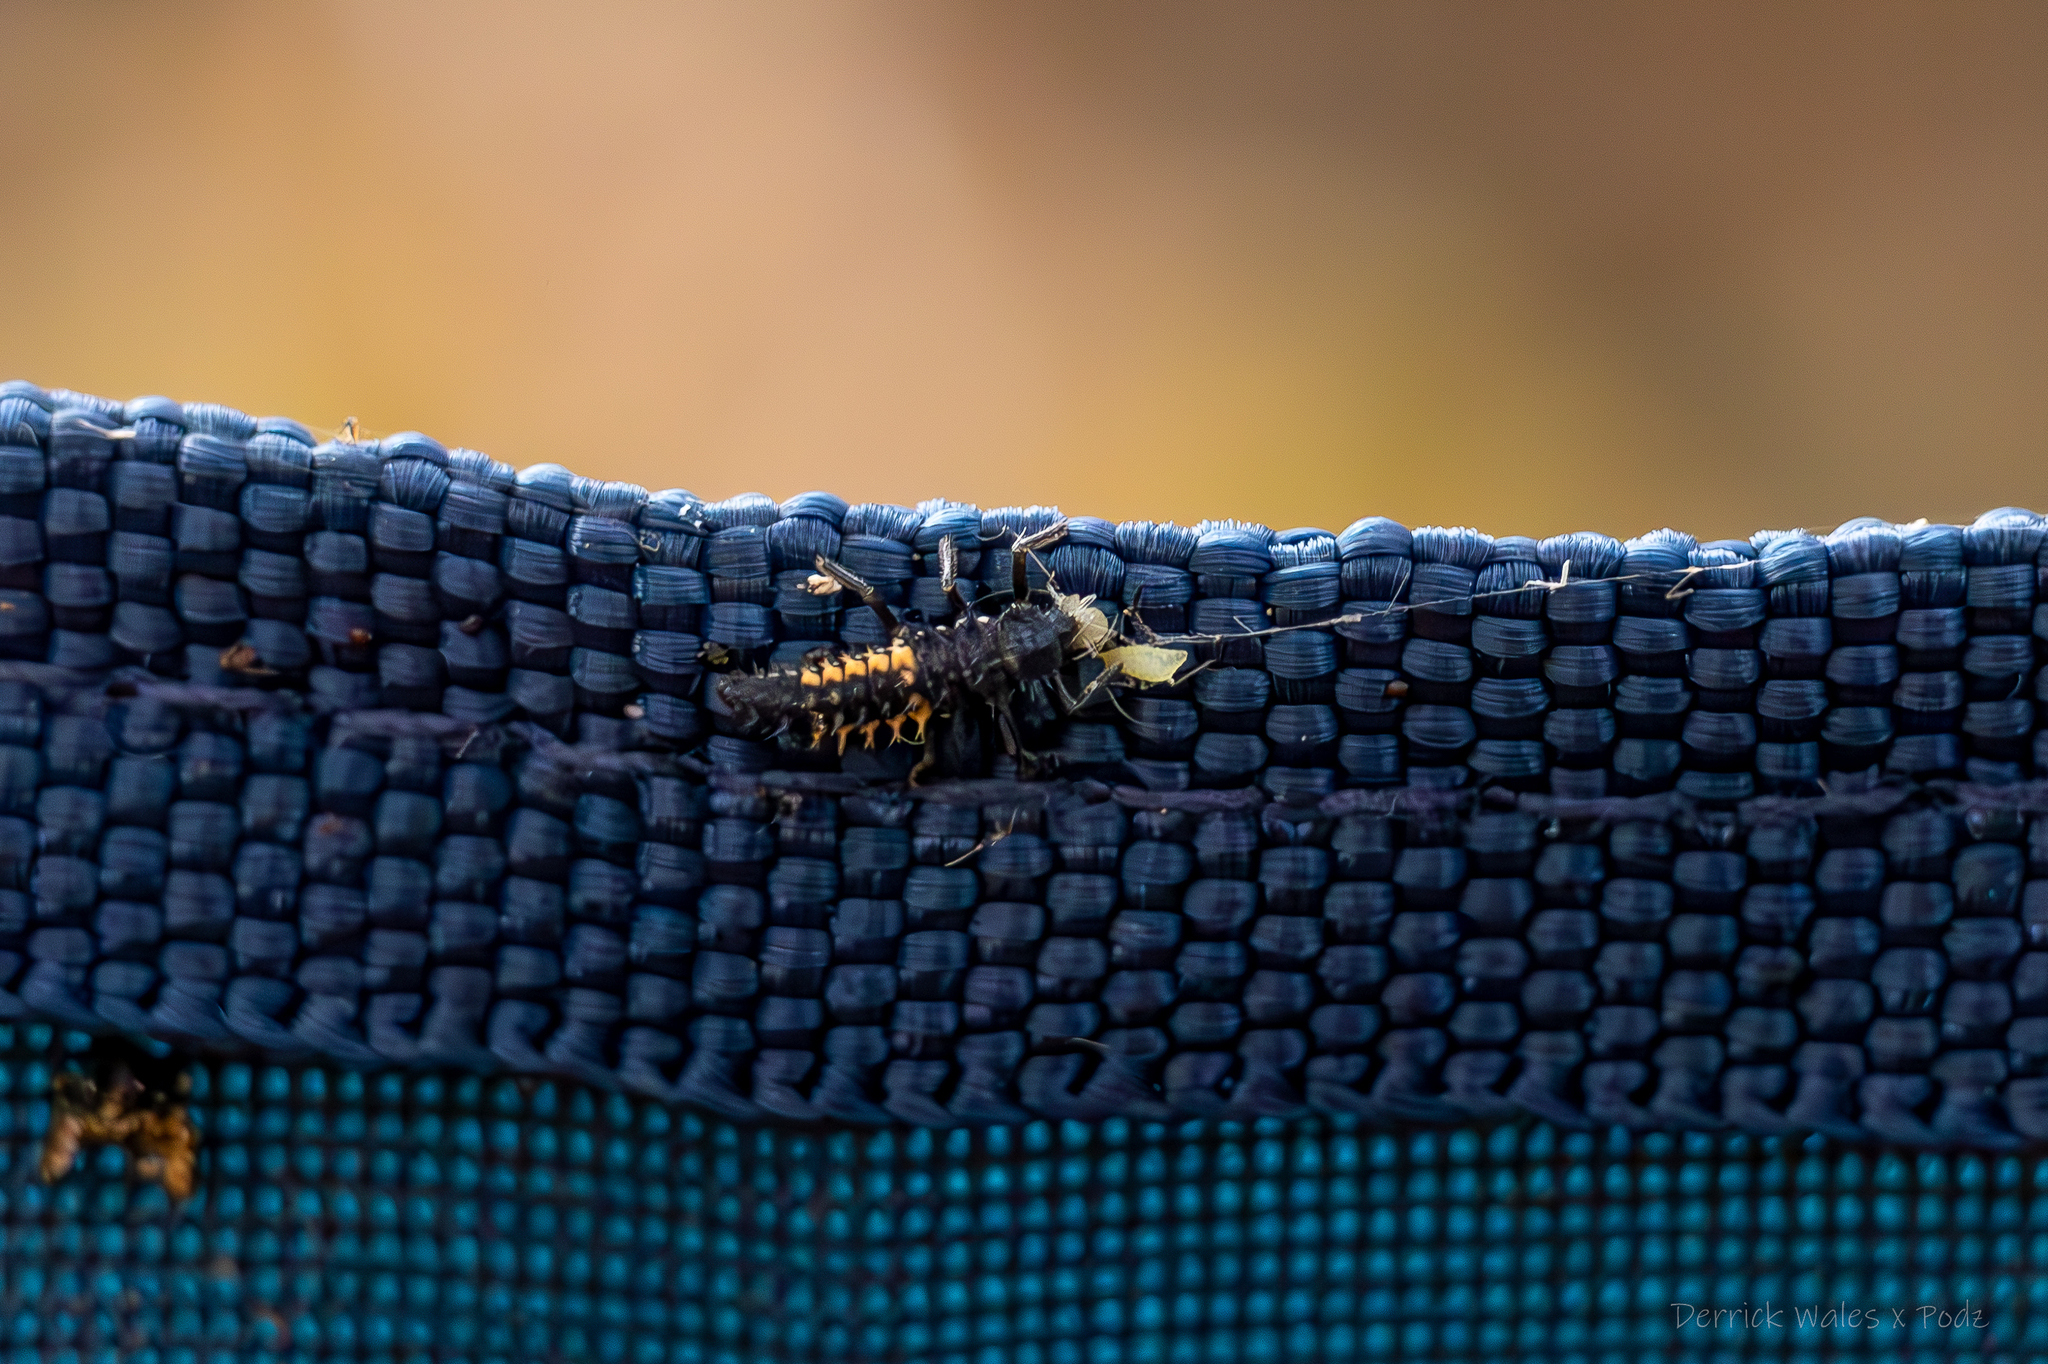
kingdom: Animalia
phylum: Arthropoda
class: Insecta
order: Coleoptera
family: Coccinellidae
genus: Harmonia
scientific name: Harmonia axyridis
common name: Harlequin ladybird
